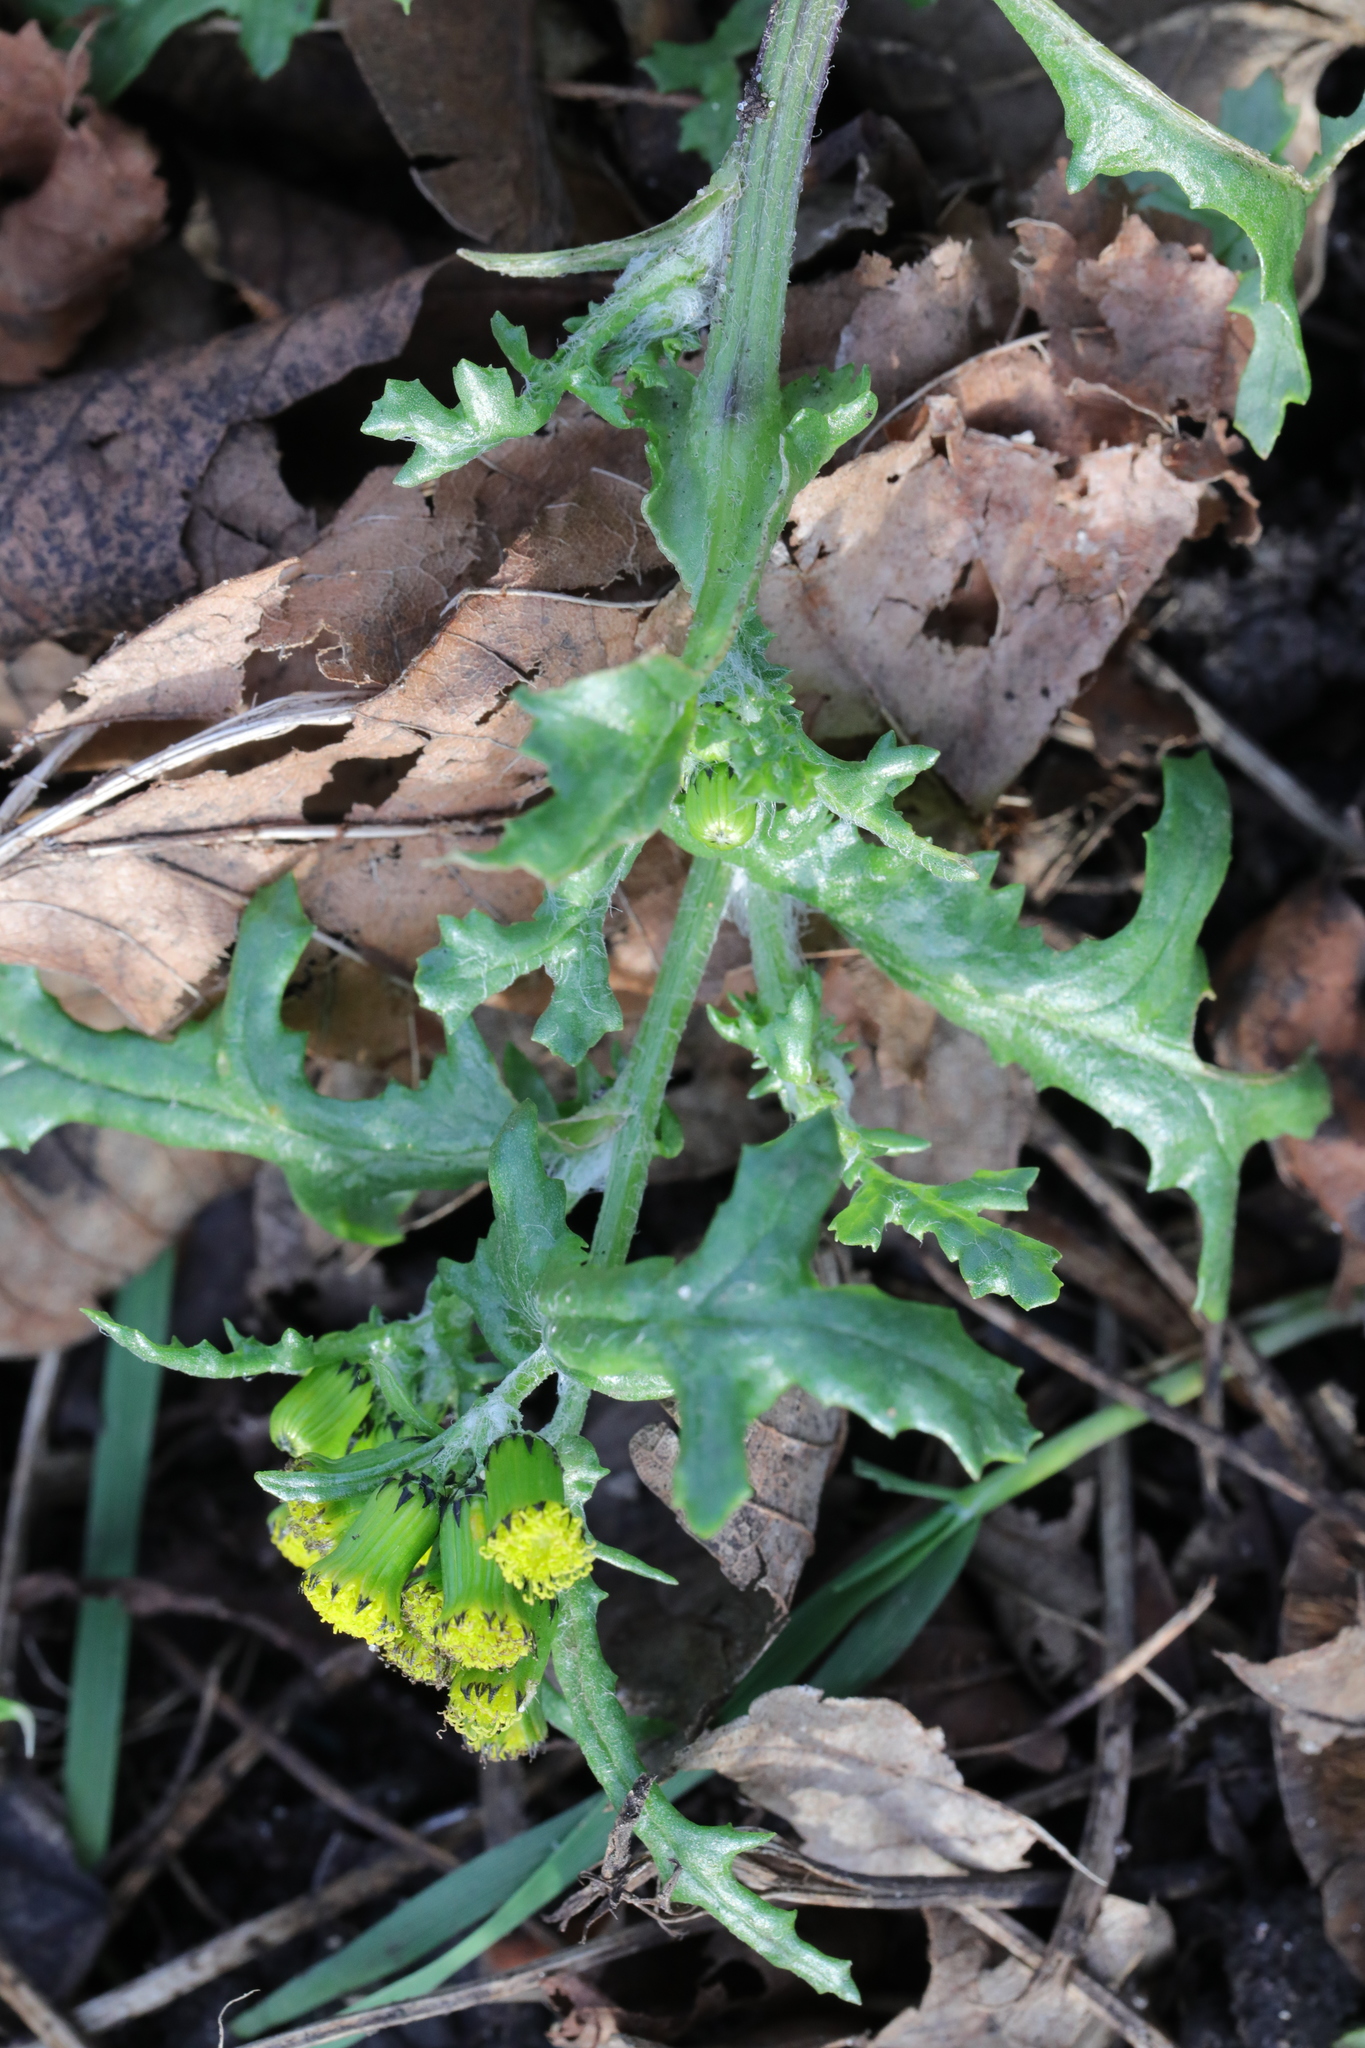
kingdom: Plantae
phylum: Tracheophyta
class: Magnoliopsida
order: Asterales
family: Asteraceae
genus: Senecio
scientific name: Senecio vulgaris
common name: Old-man-in-the-spring
